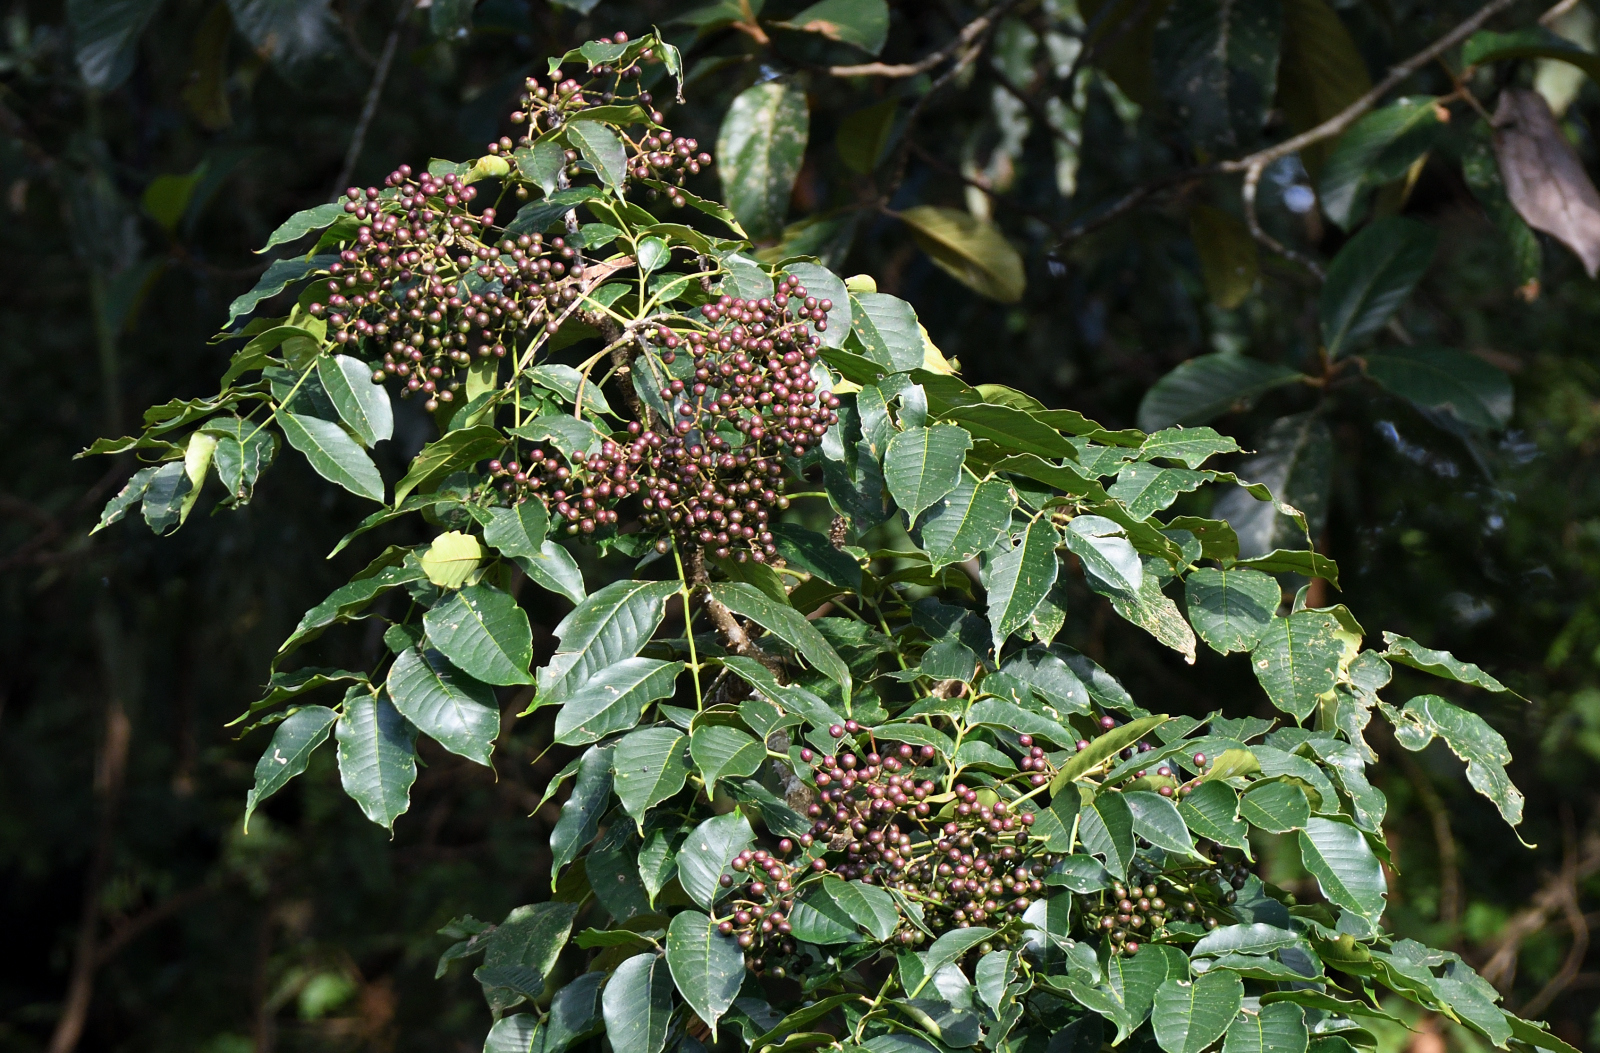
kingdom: Plantae
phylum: Tracheophyta
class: Magnoliopsida
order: Sapindales
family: Rutaceae
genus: Zanthoxylum
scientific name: Zanthoxylum rhetsa
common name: Indian ivy-rue
